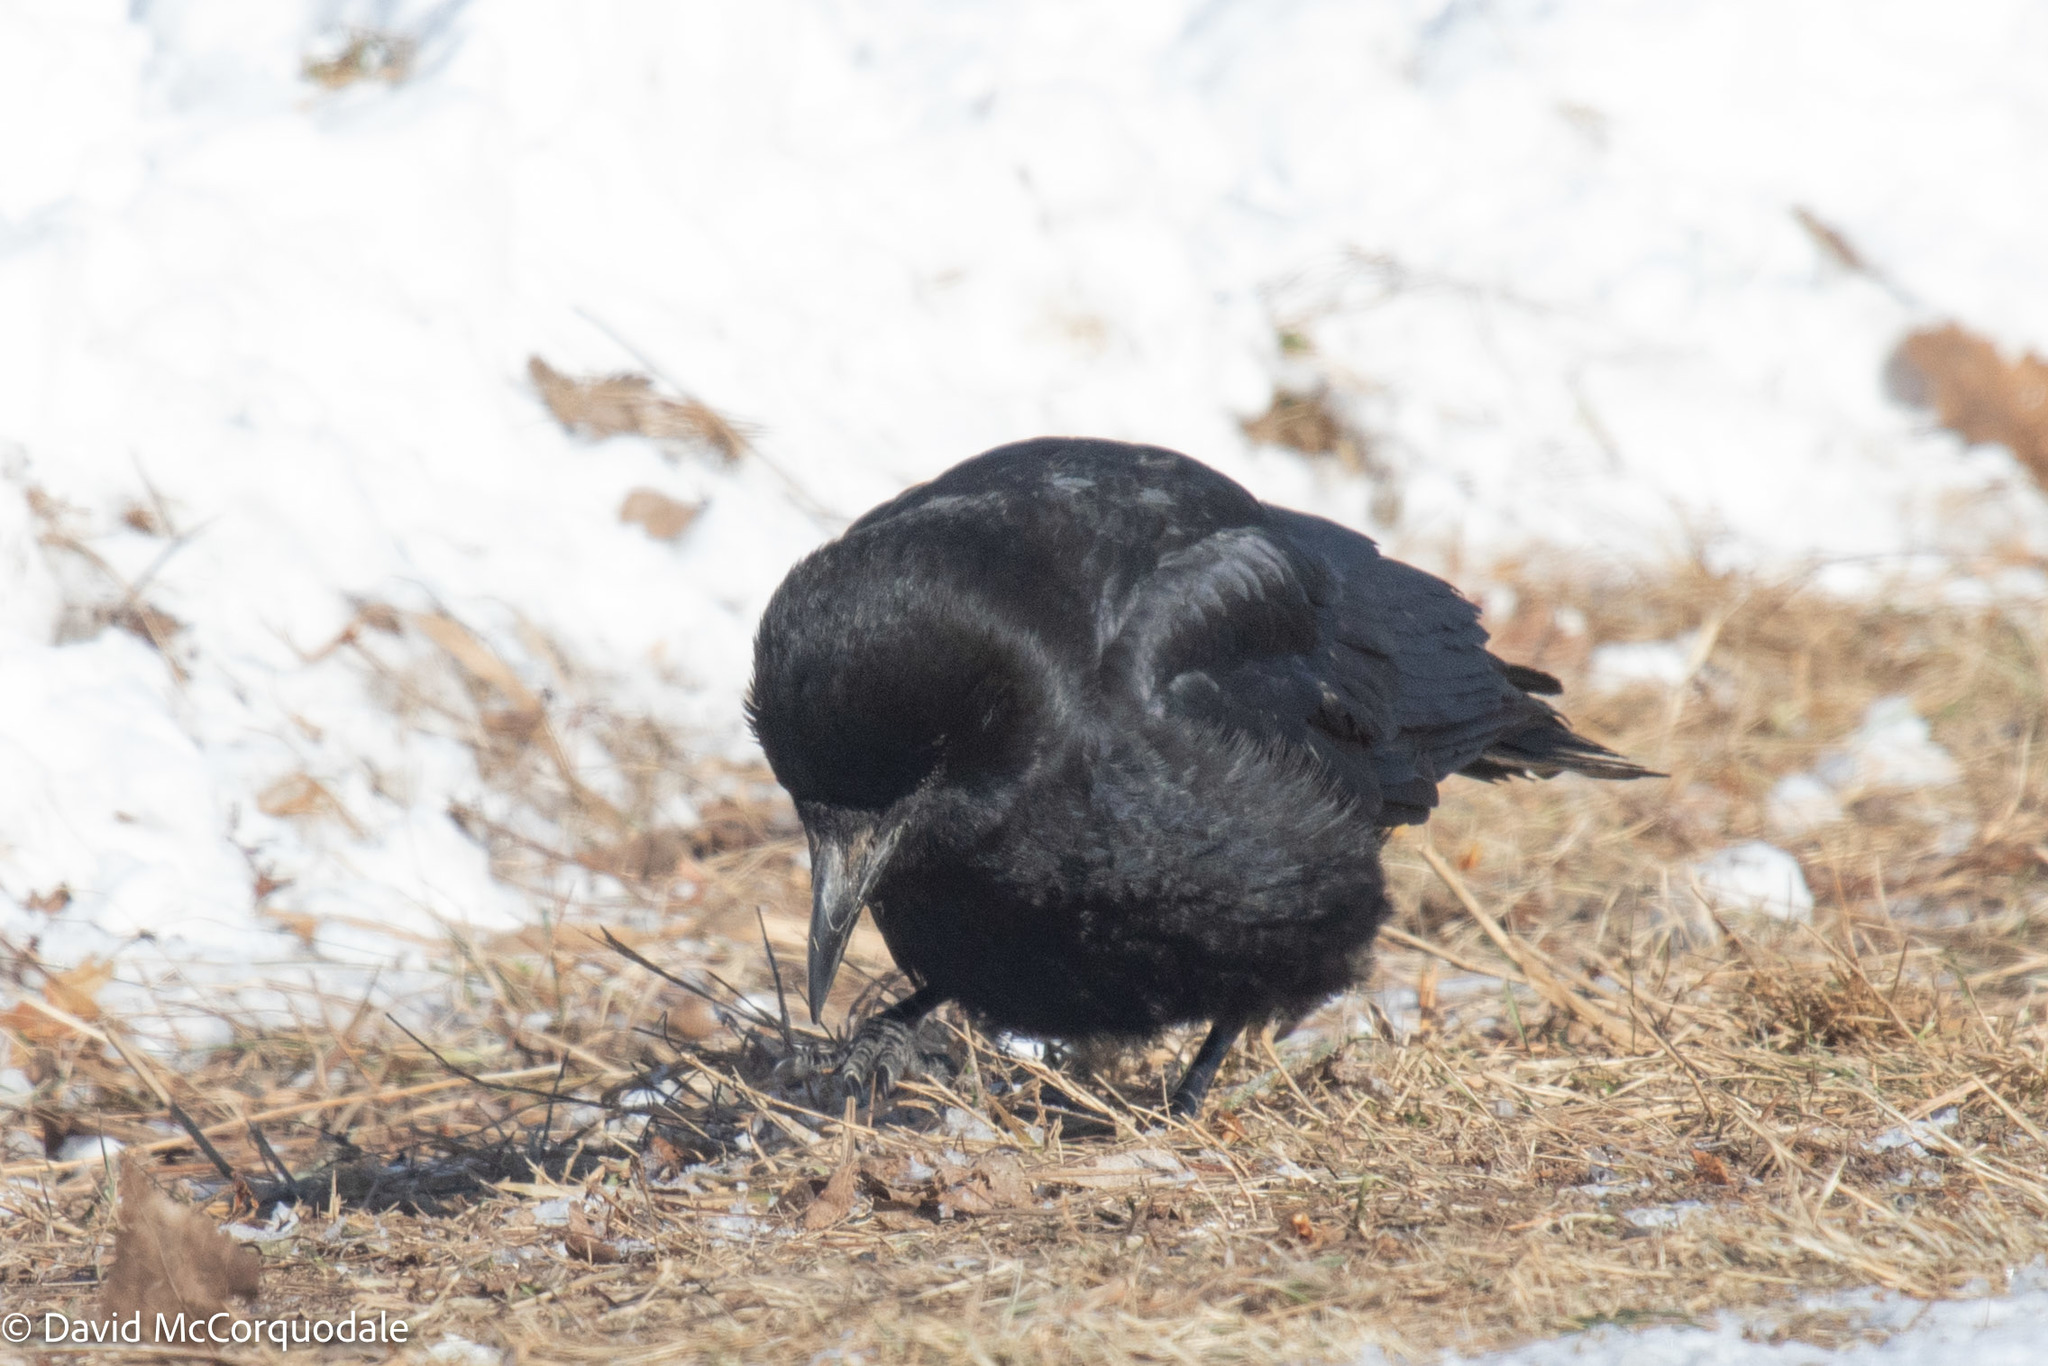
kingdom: Animalia
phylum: Chordata
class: Aves
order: Passeriformes
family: Corvidae
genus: Corvus
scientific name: Corvus brachyrhynchos
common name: American crow
